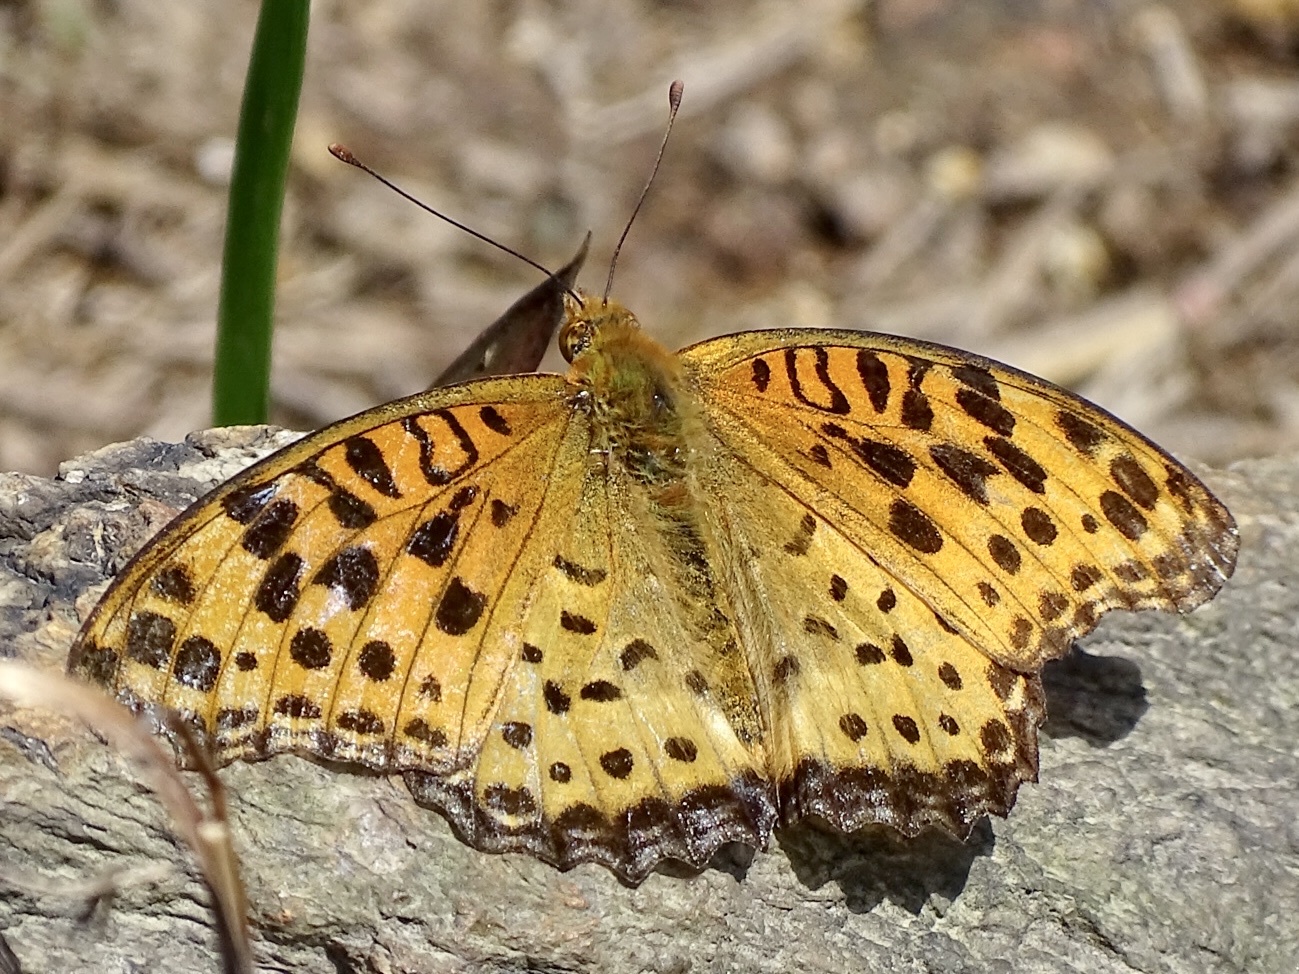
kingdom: Animalia
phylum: Arthropoda
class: Insecta
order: Lepidoptera
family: Nymphalidae
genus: Argynnis
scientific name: Argynnis hyperbius
